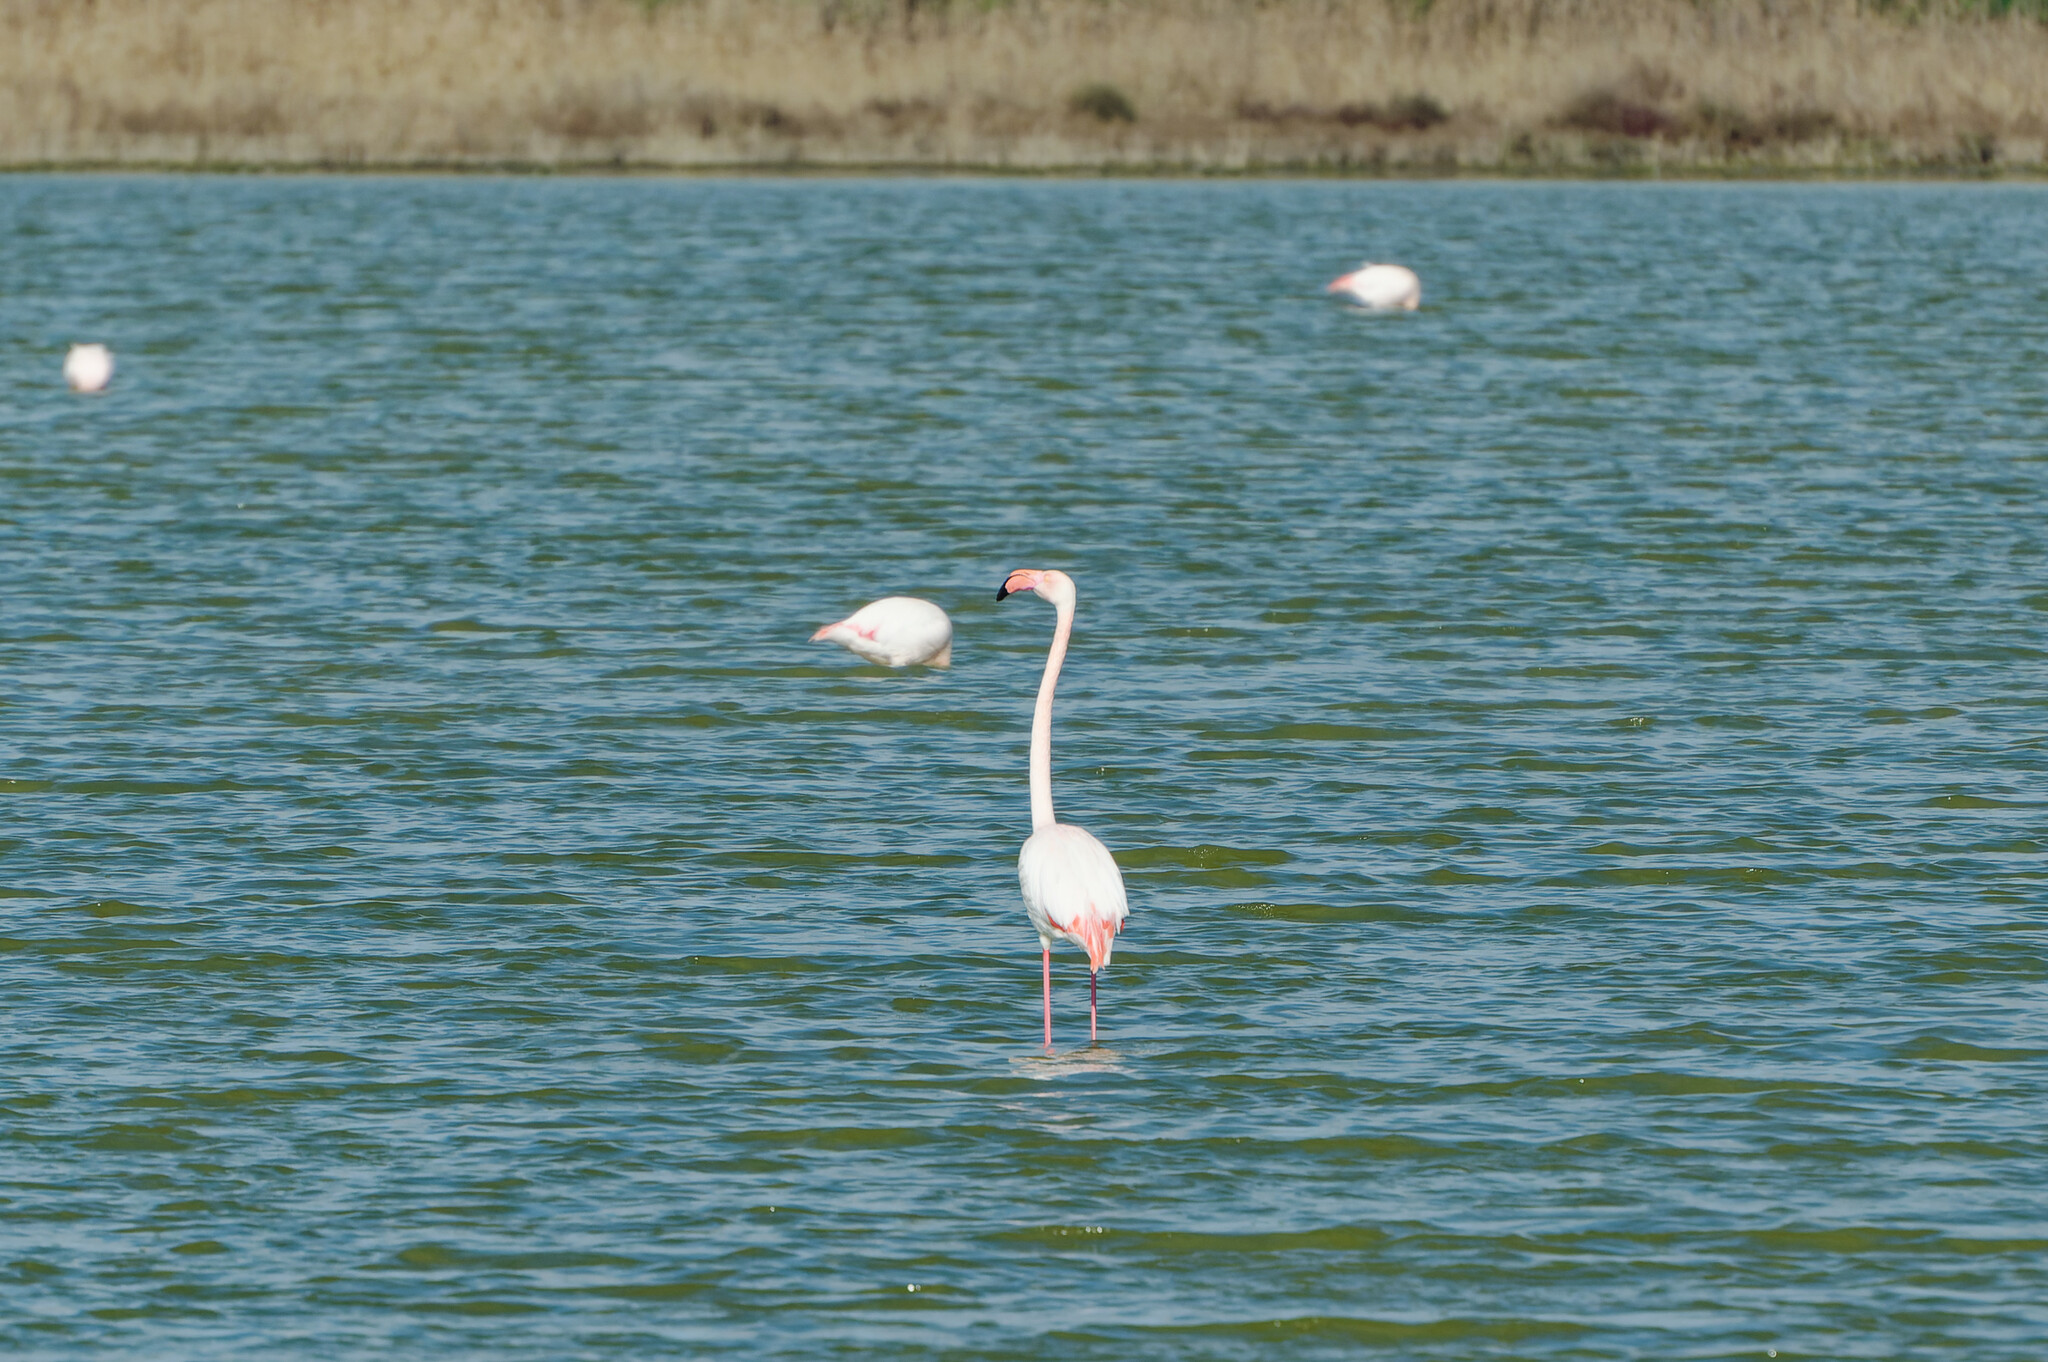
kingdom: Animalia
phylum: Chordata
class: Aves
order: Phoenicopteriformes
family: Phoenicopteridae
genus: Phoenicopterus
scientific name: Phoenicopterus roseus
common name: Greater flamingo
